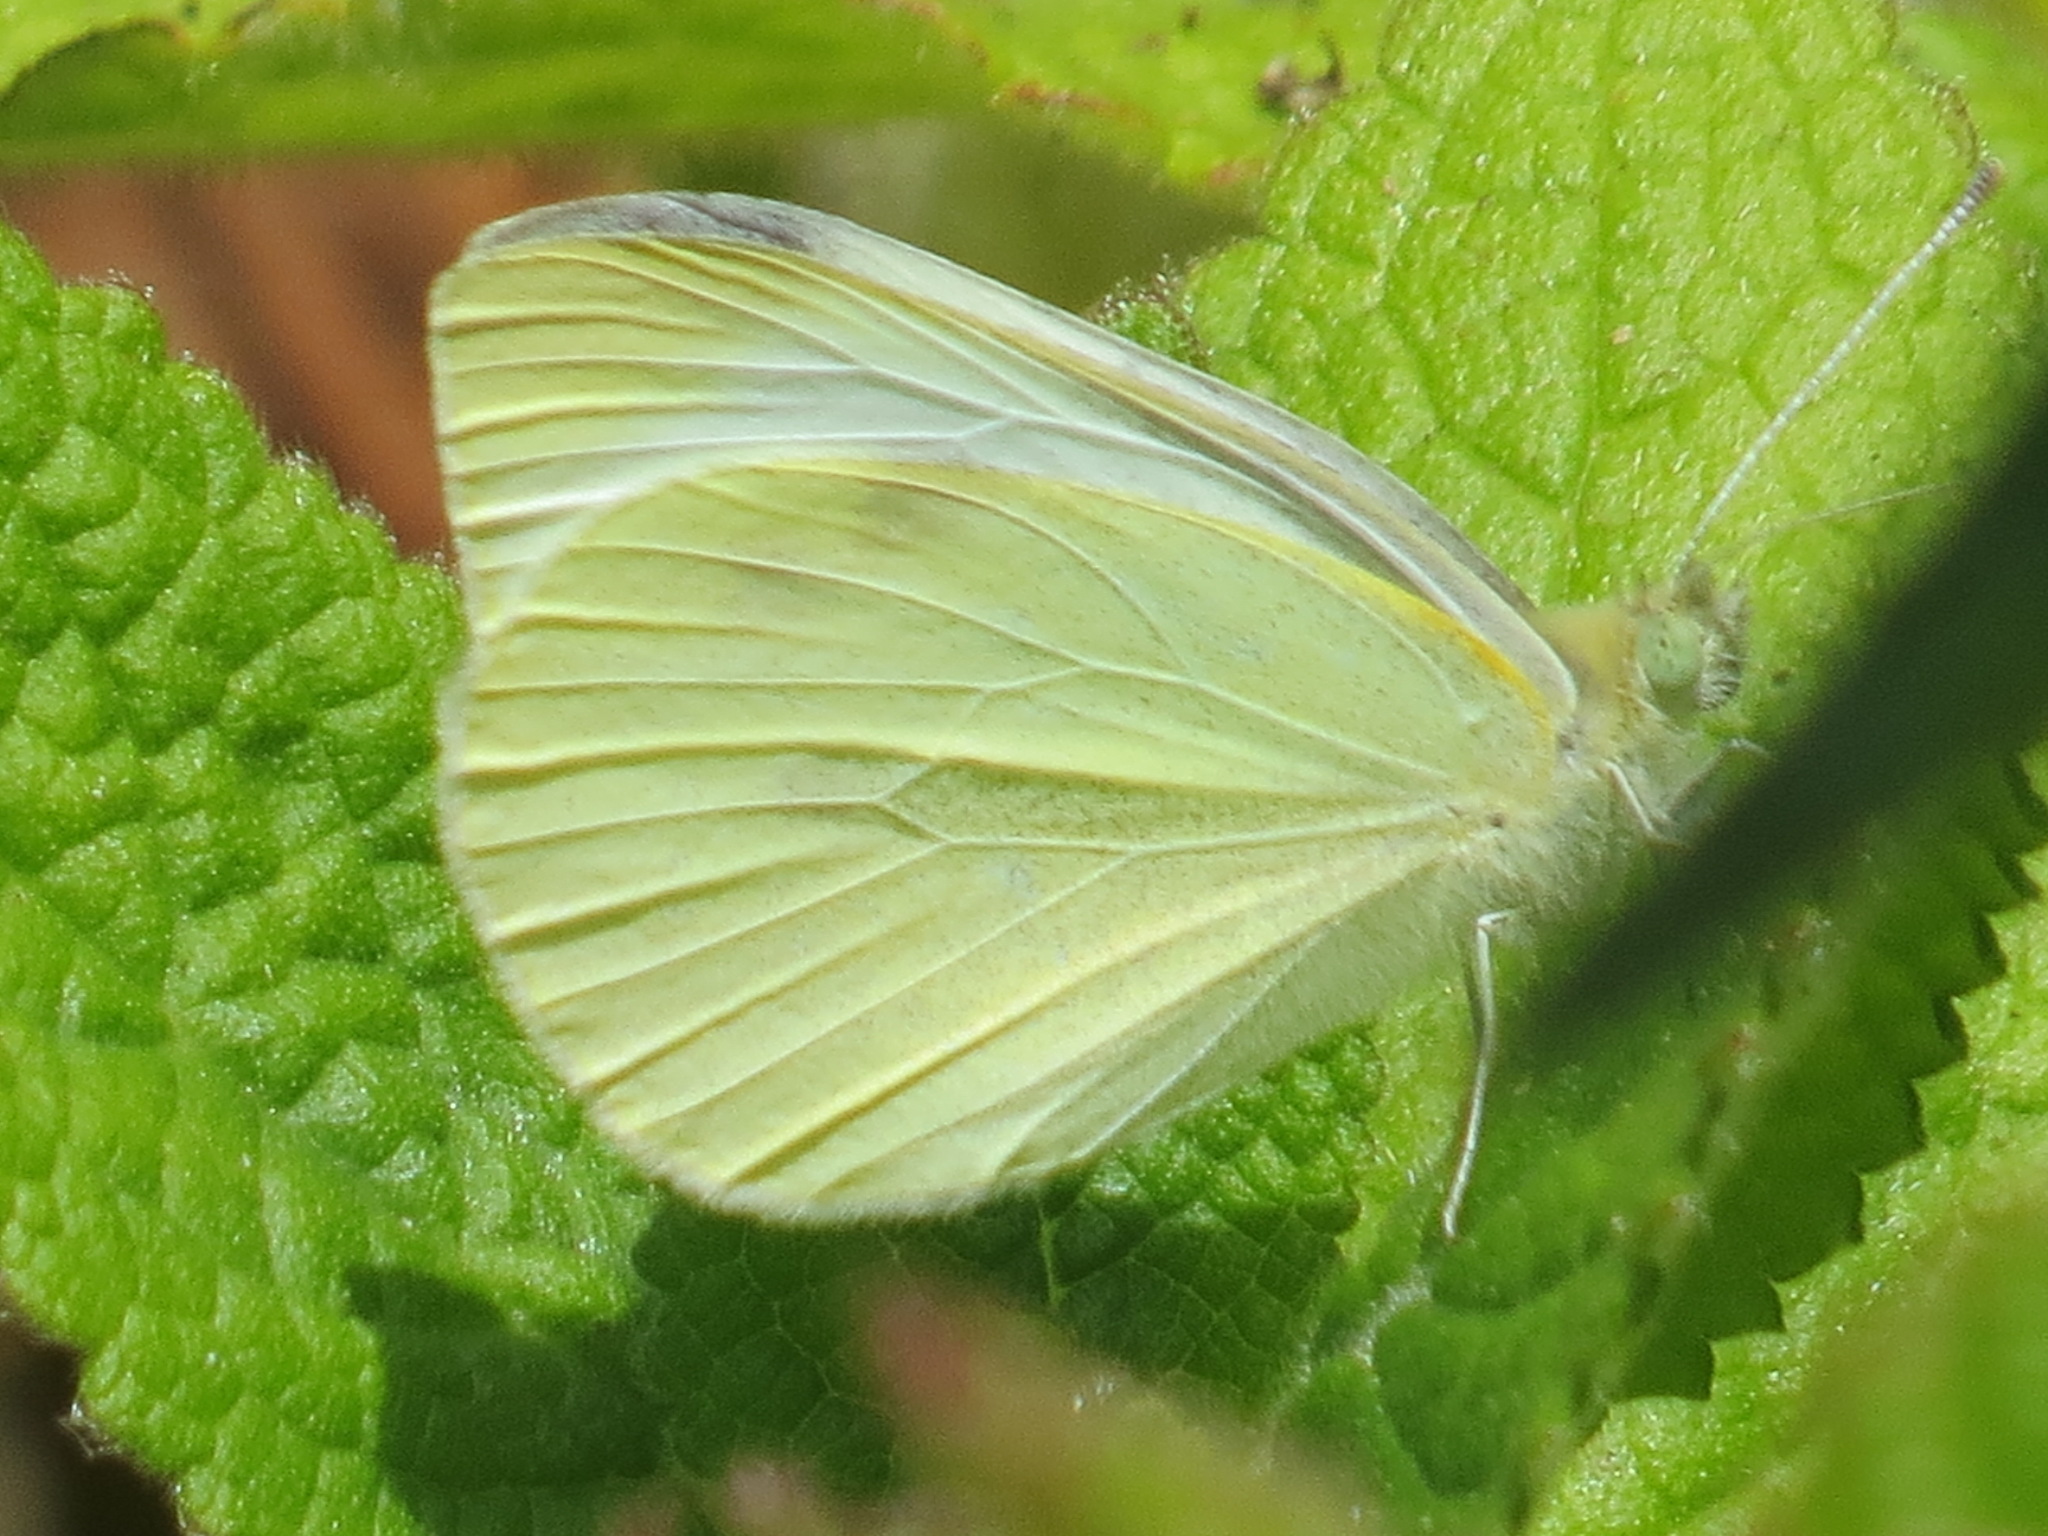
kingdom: Animalia
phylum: Arthropoda
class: Insecta
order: Lepidoptera
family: Pieridae
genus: Pieris
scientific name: Pieris rapae
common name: Small white
